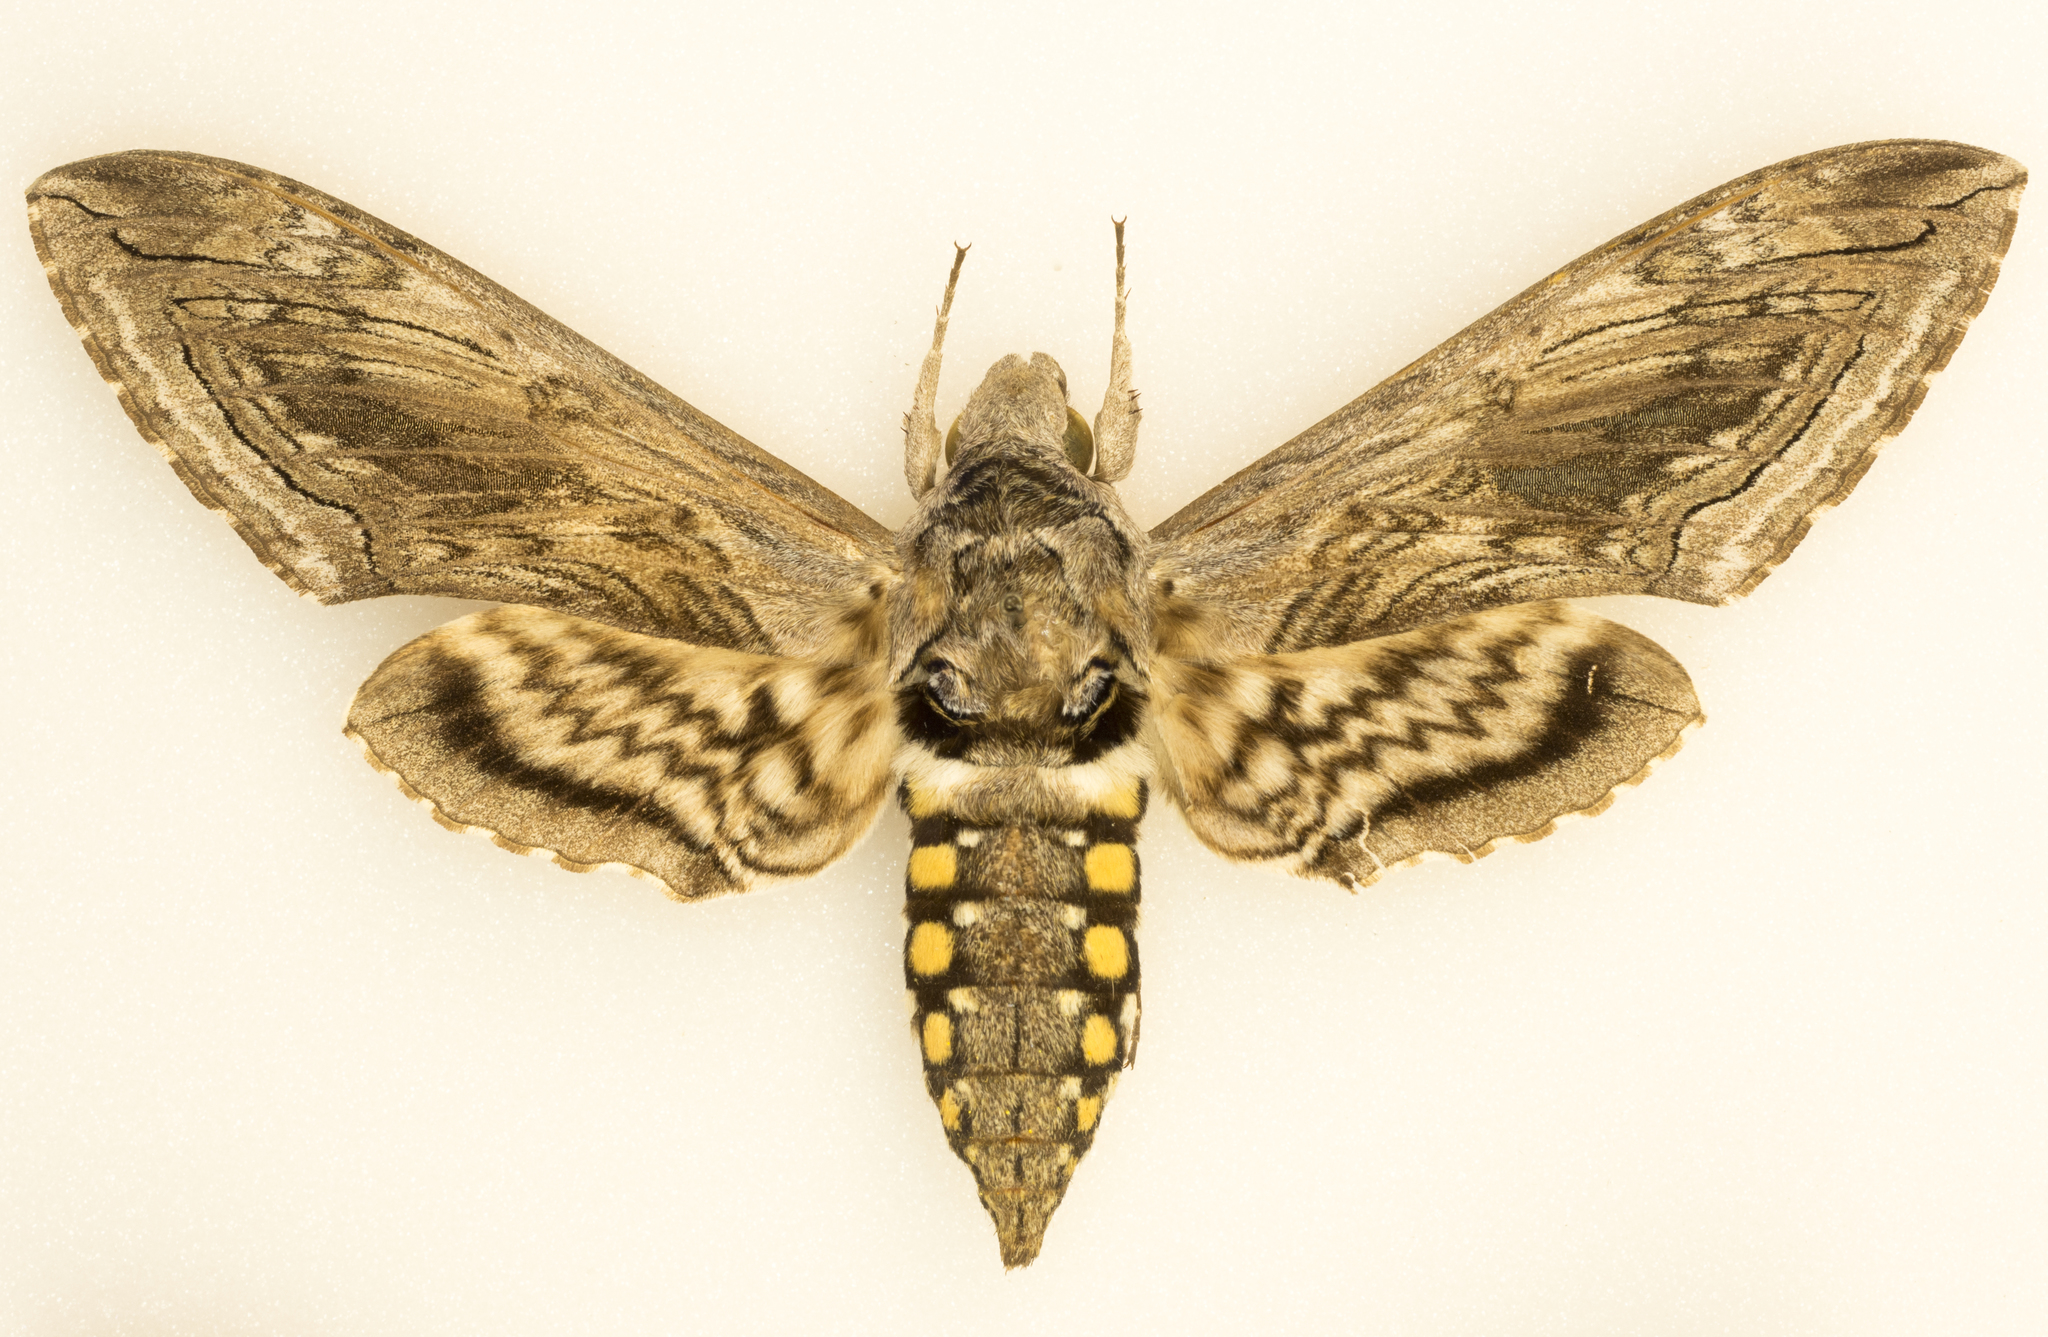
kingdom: Animalia
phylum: Arthropoda
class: Insecta
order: Lepidoptera
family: Sphingidae
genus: Manduca
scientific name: Manduca quinquemaculatus
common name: Five-spotted hawk-moth
